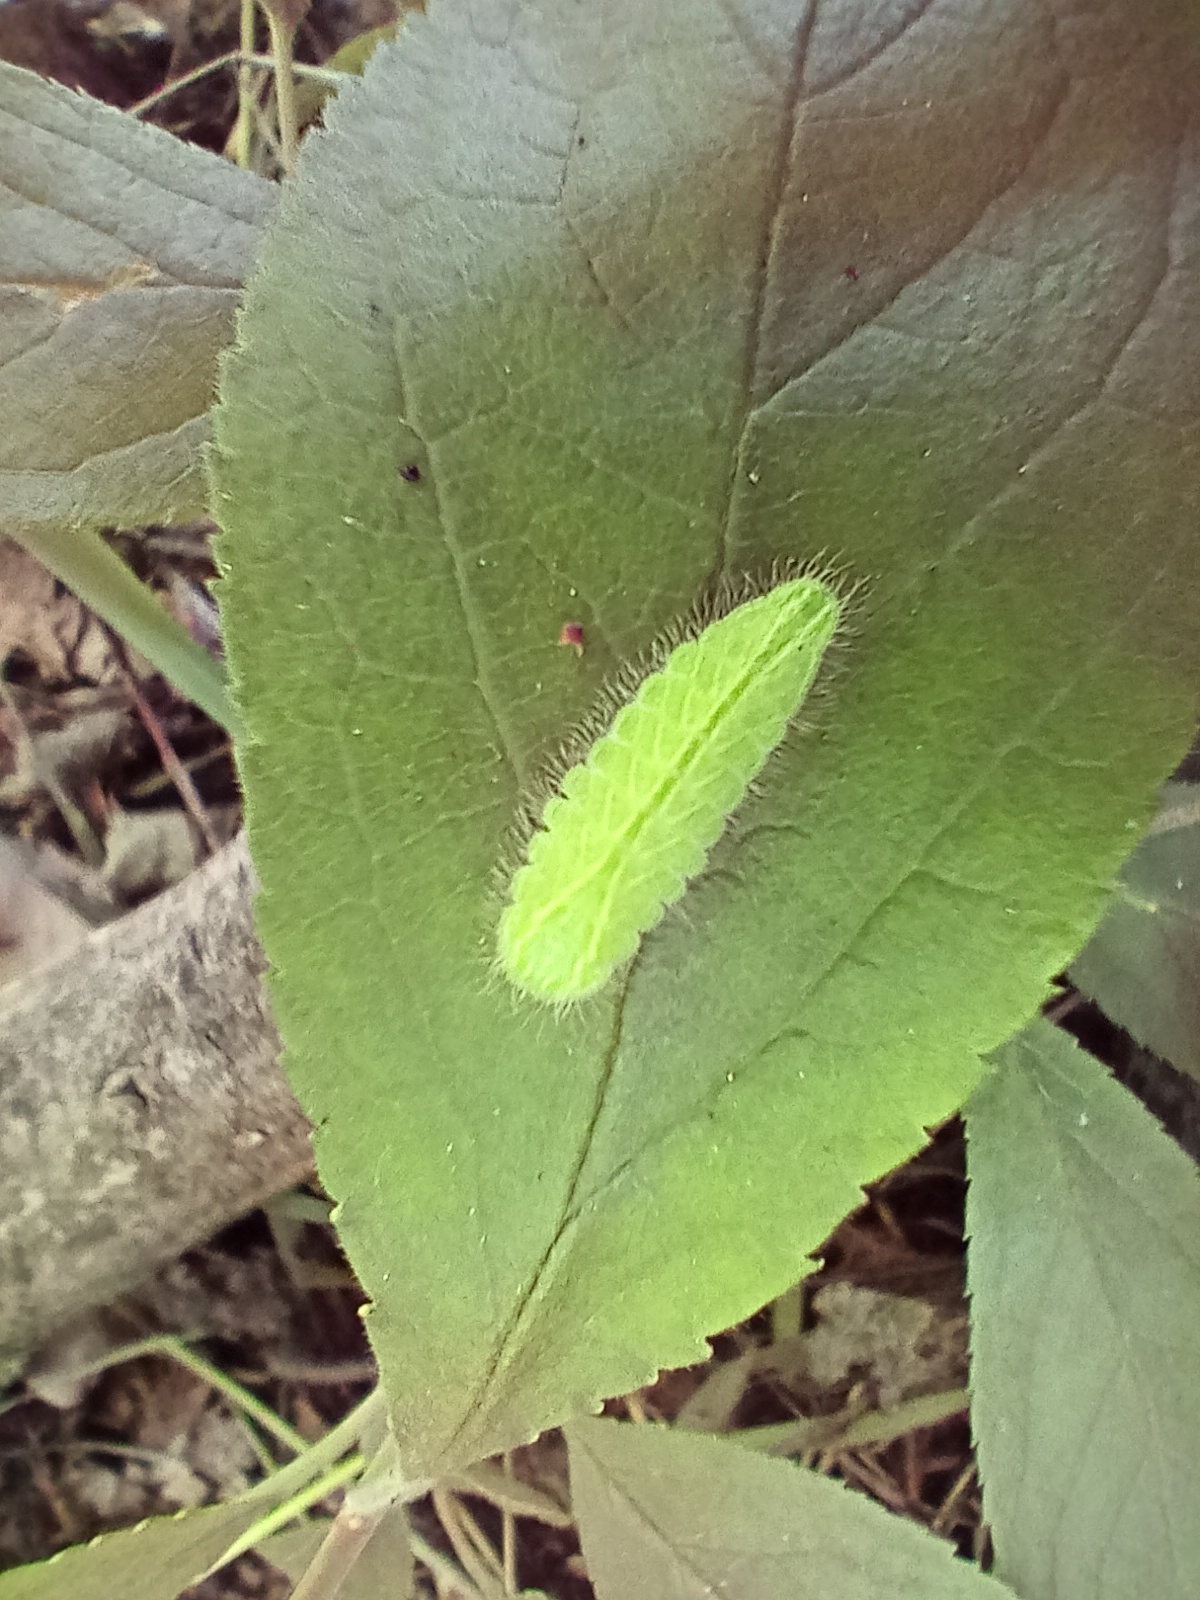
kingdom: Animalia
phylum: Arthropoda
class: Insecta
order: Lepidoptera
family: Lycaenidae
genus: Thecla
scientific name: Thecla betulae
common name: Brown hairstreak
